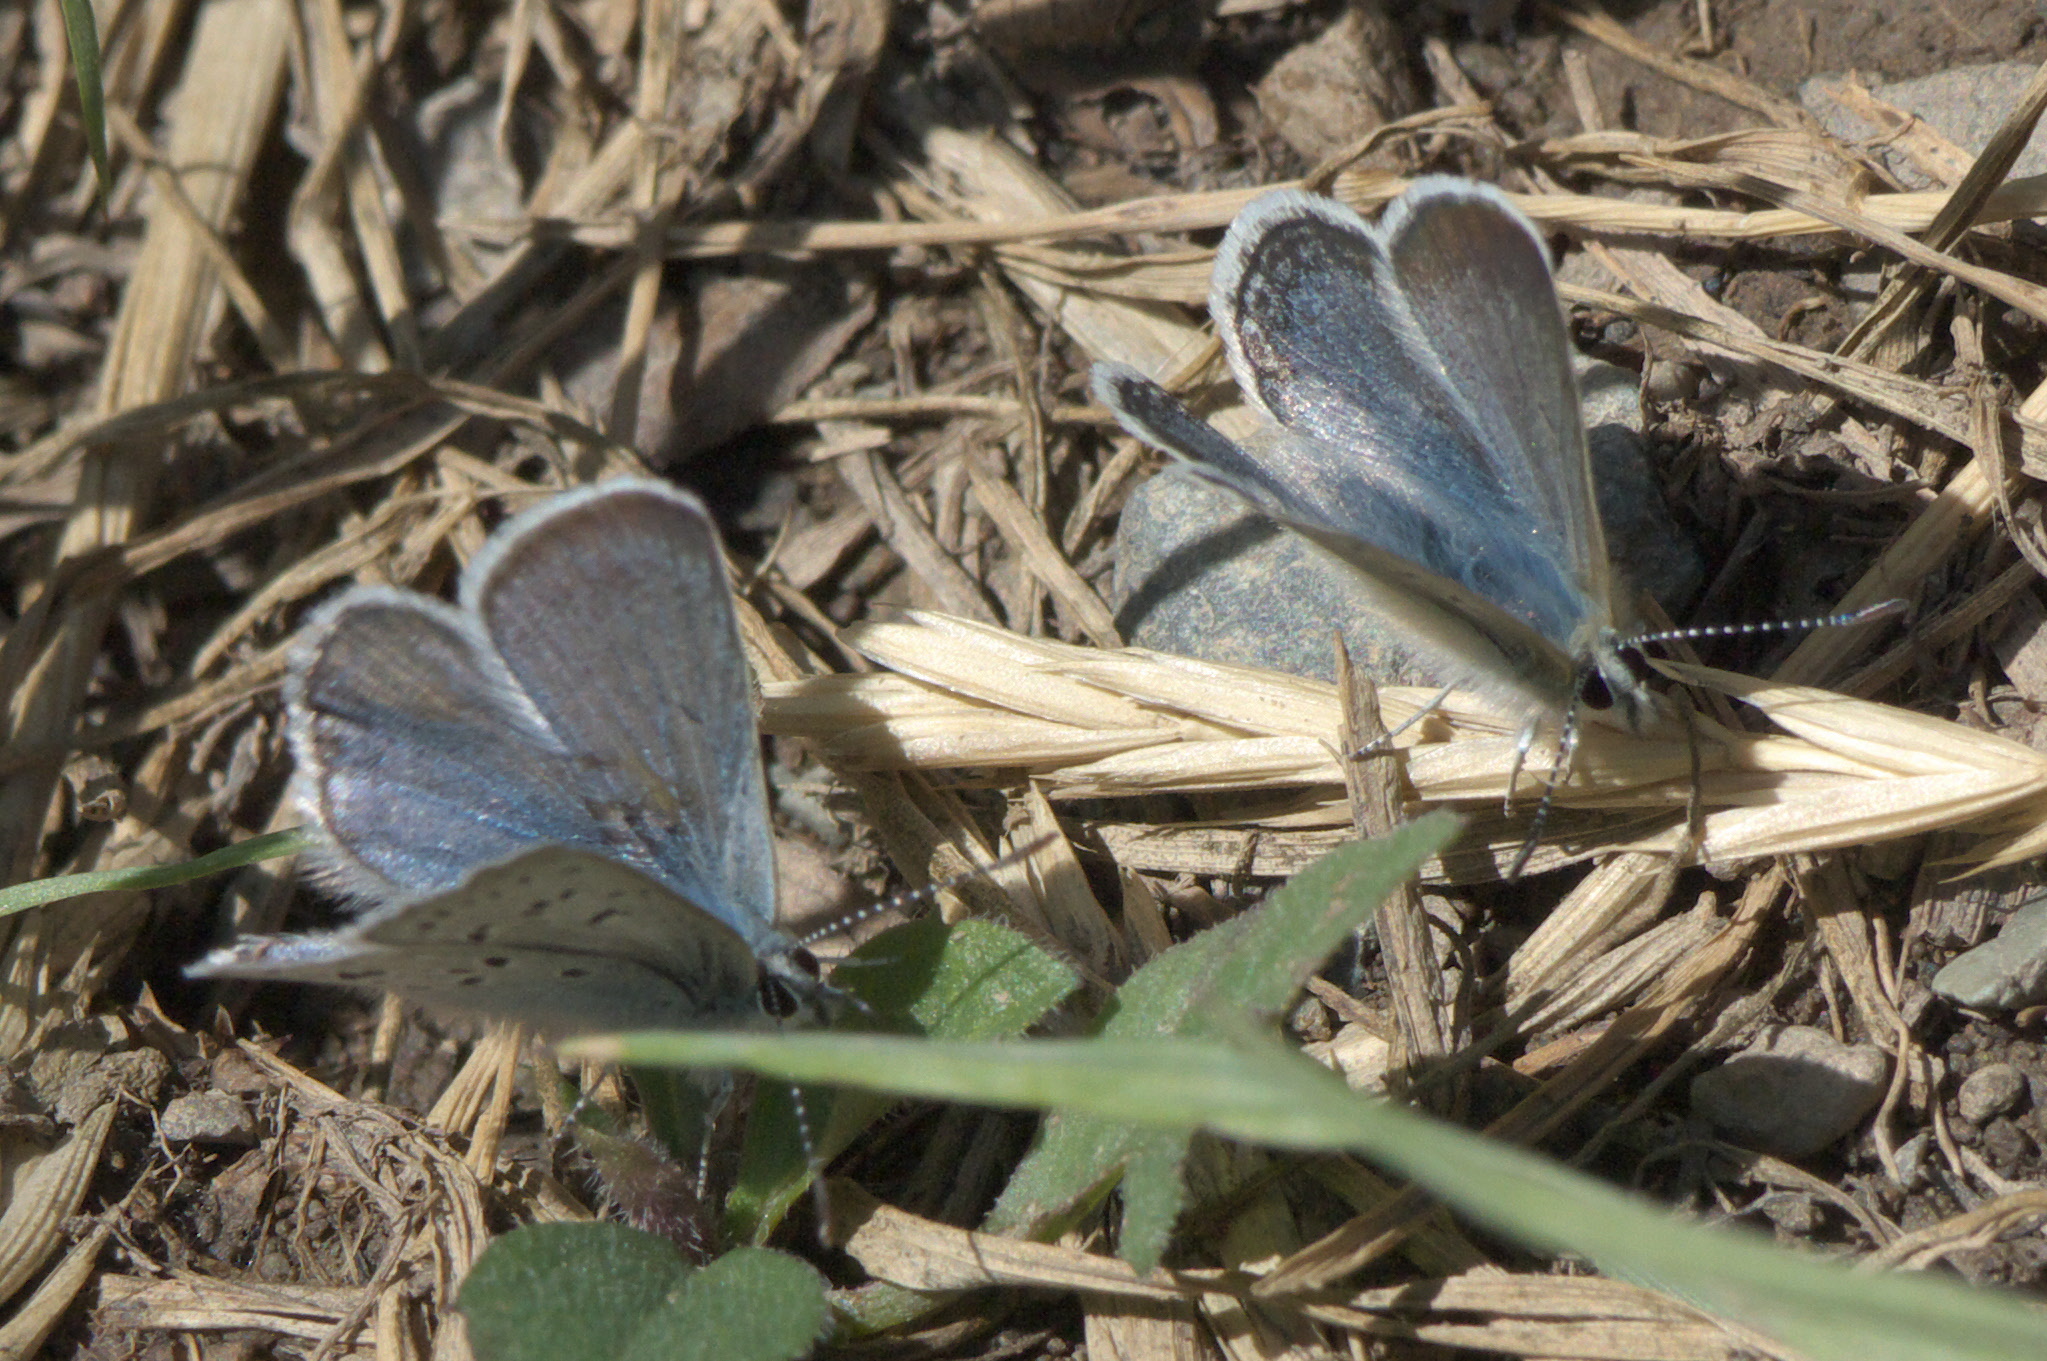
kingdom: Animalia
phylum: Arthropoda
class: Insecta
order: Lepidoptera
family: Lycaenidae
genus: Icaricia
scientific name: Icaricia icarioides
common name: Boisduval's blue
